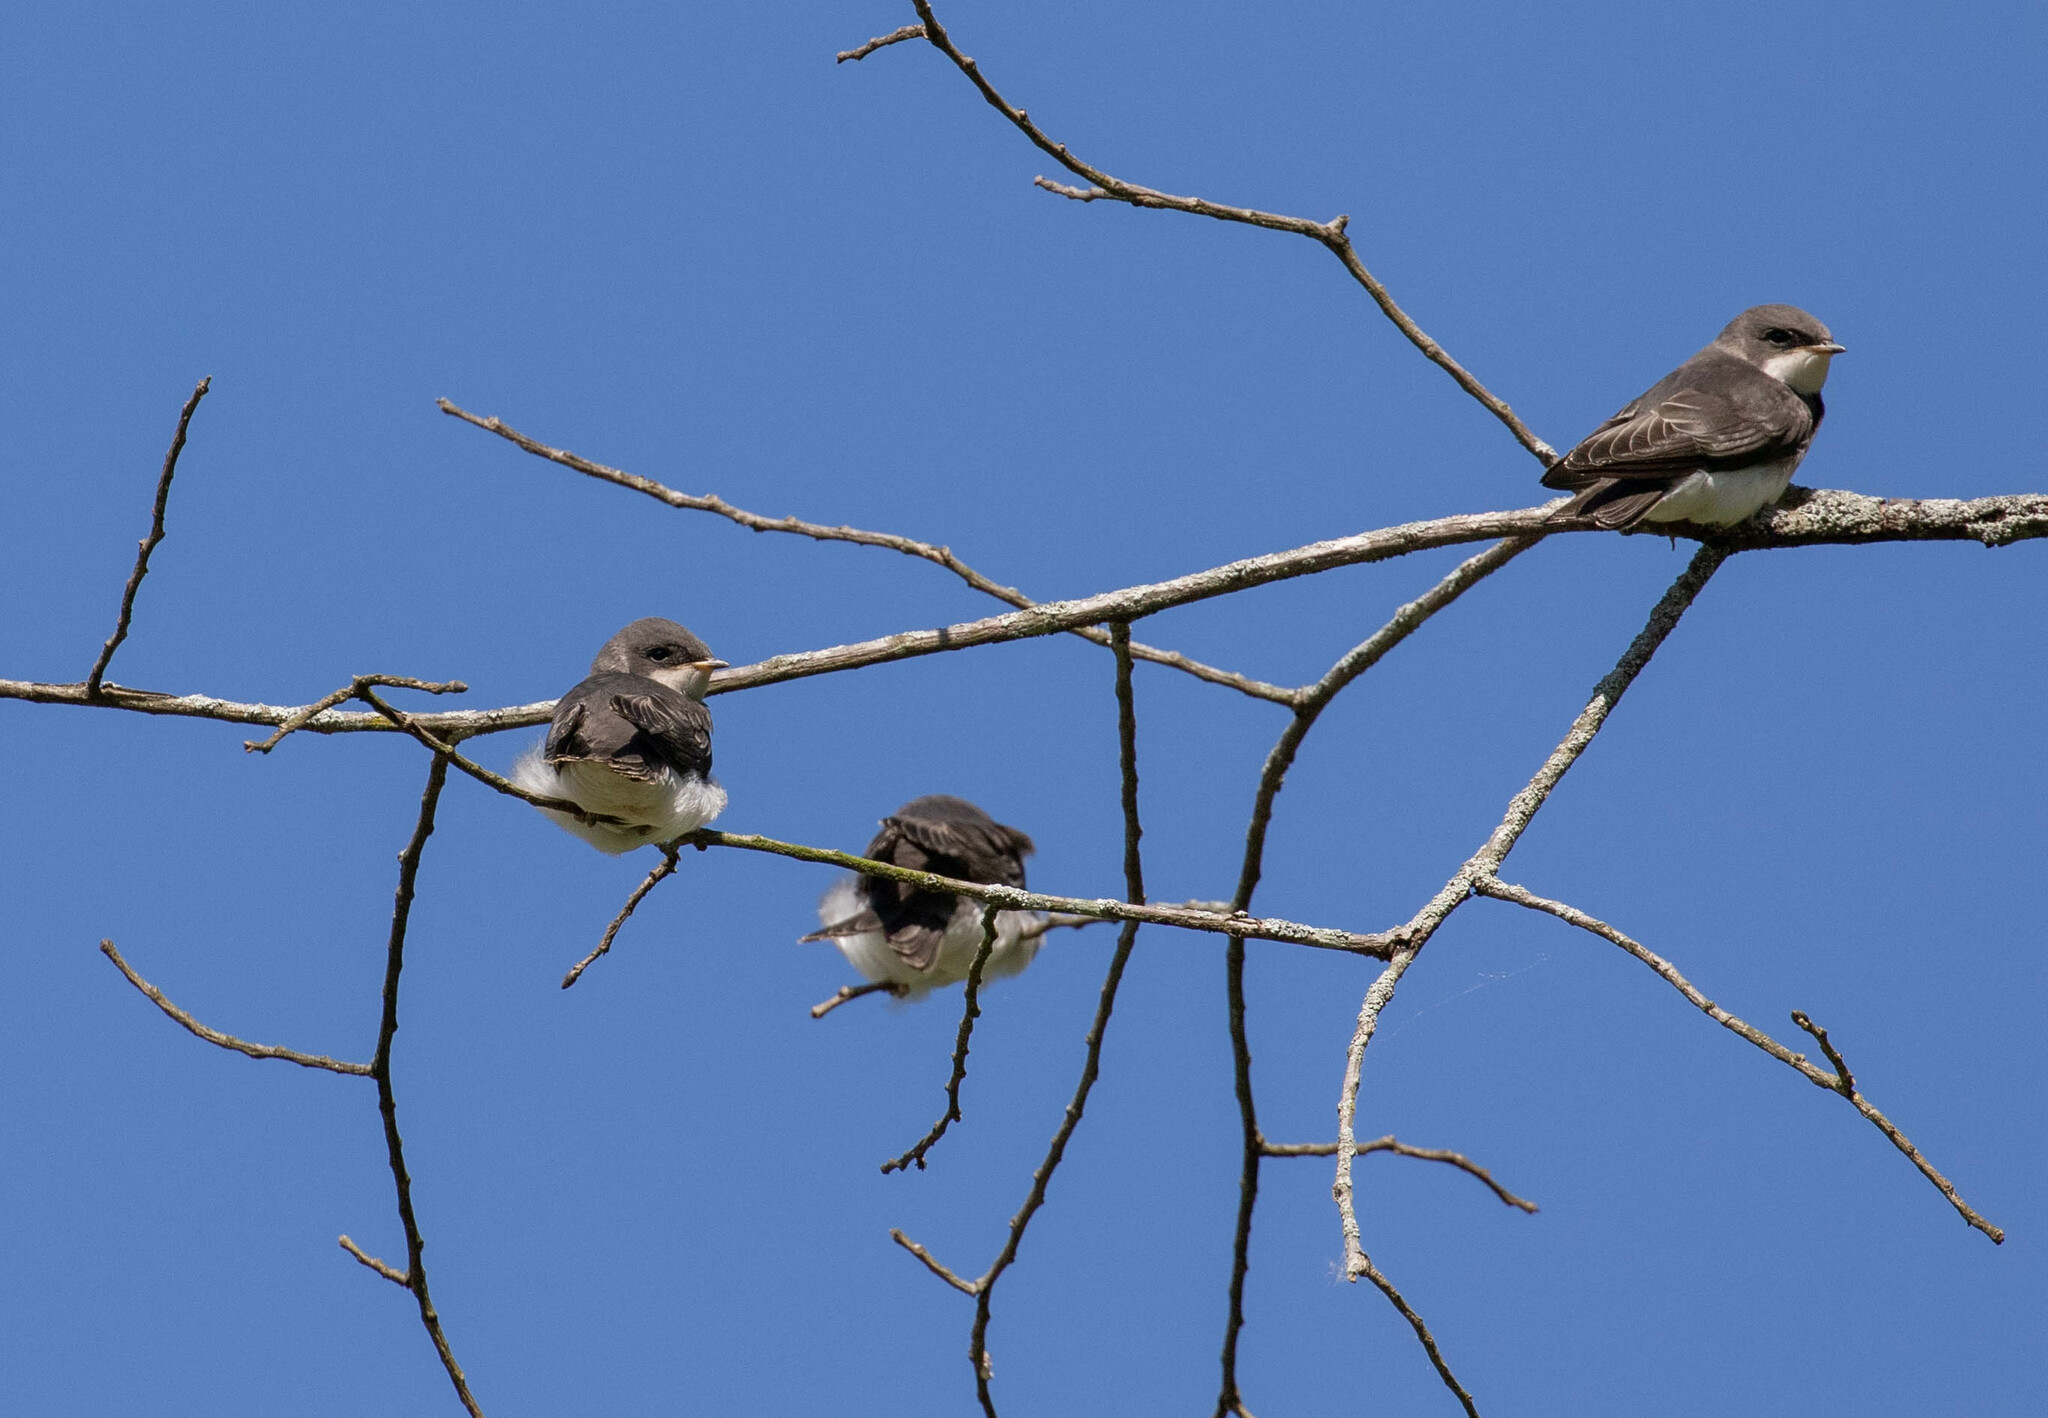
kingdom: Animalia
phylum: Chordata
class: Aves
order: Passeriformes
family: Tyrannidae
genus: Tyrannus
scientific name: Tyrannus tyrannus
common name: Eastern kingbird
